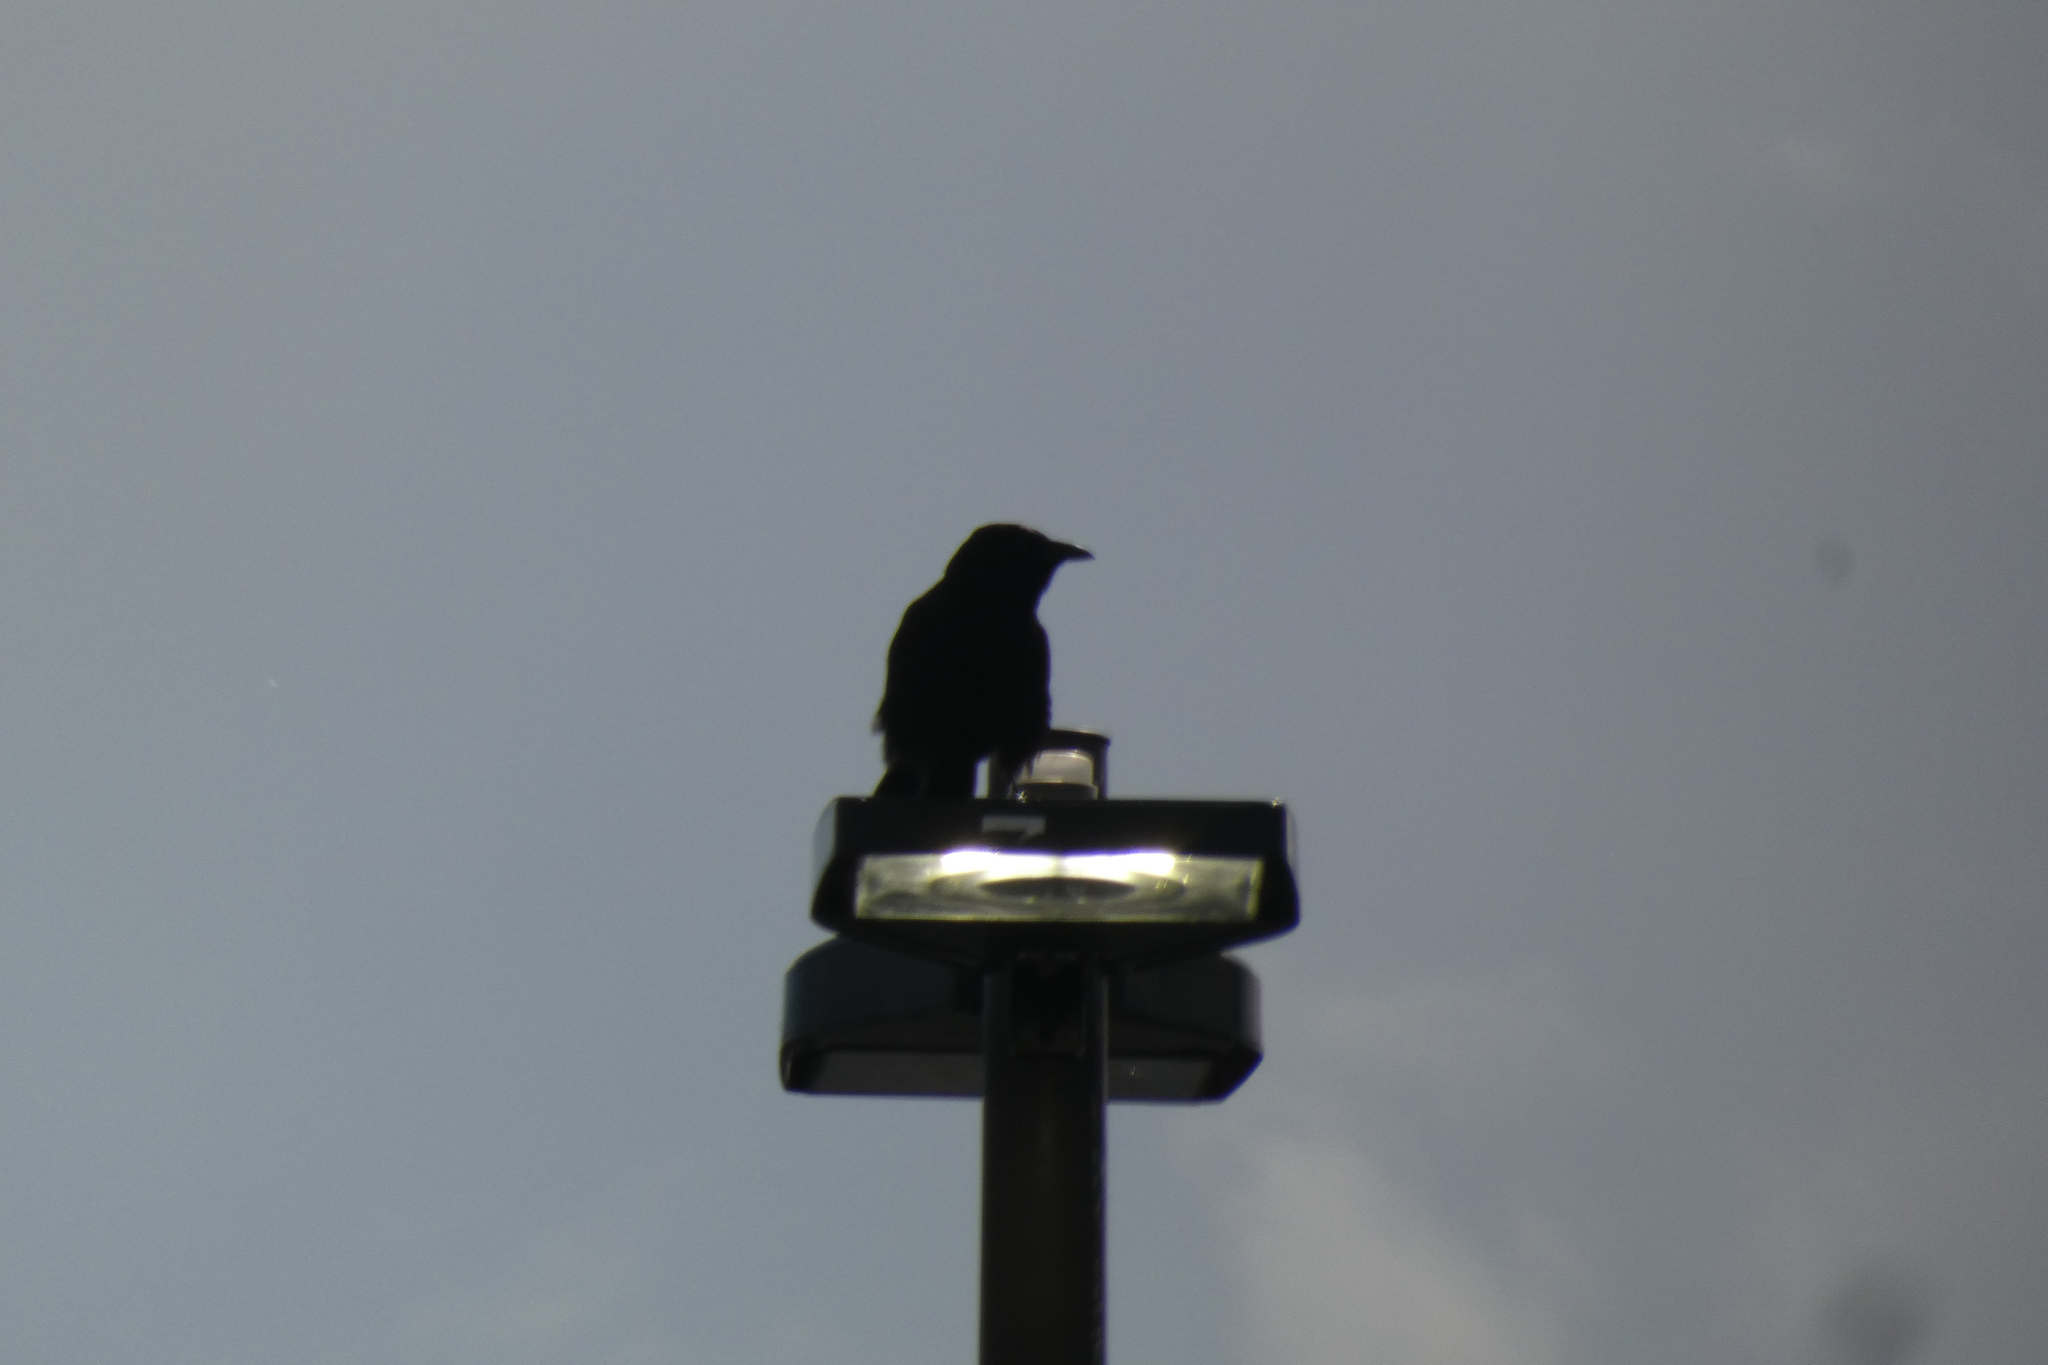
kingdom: Animalia
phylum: Chordata
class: Aves
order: Passeriformes
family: Corvidae
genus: Corvus
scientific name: Corvus brachyrhynchos
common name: American crow
